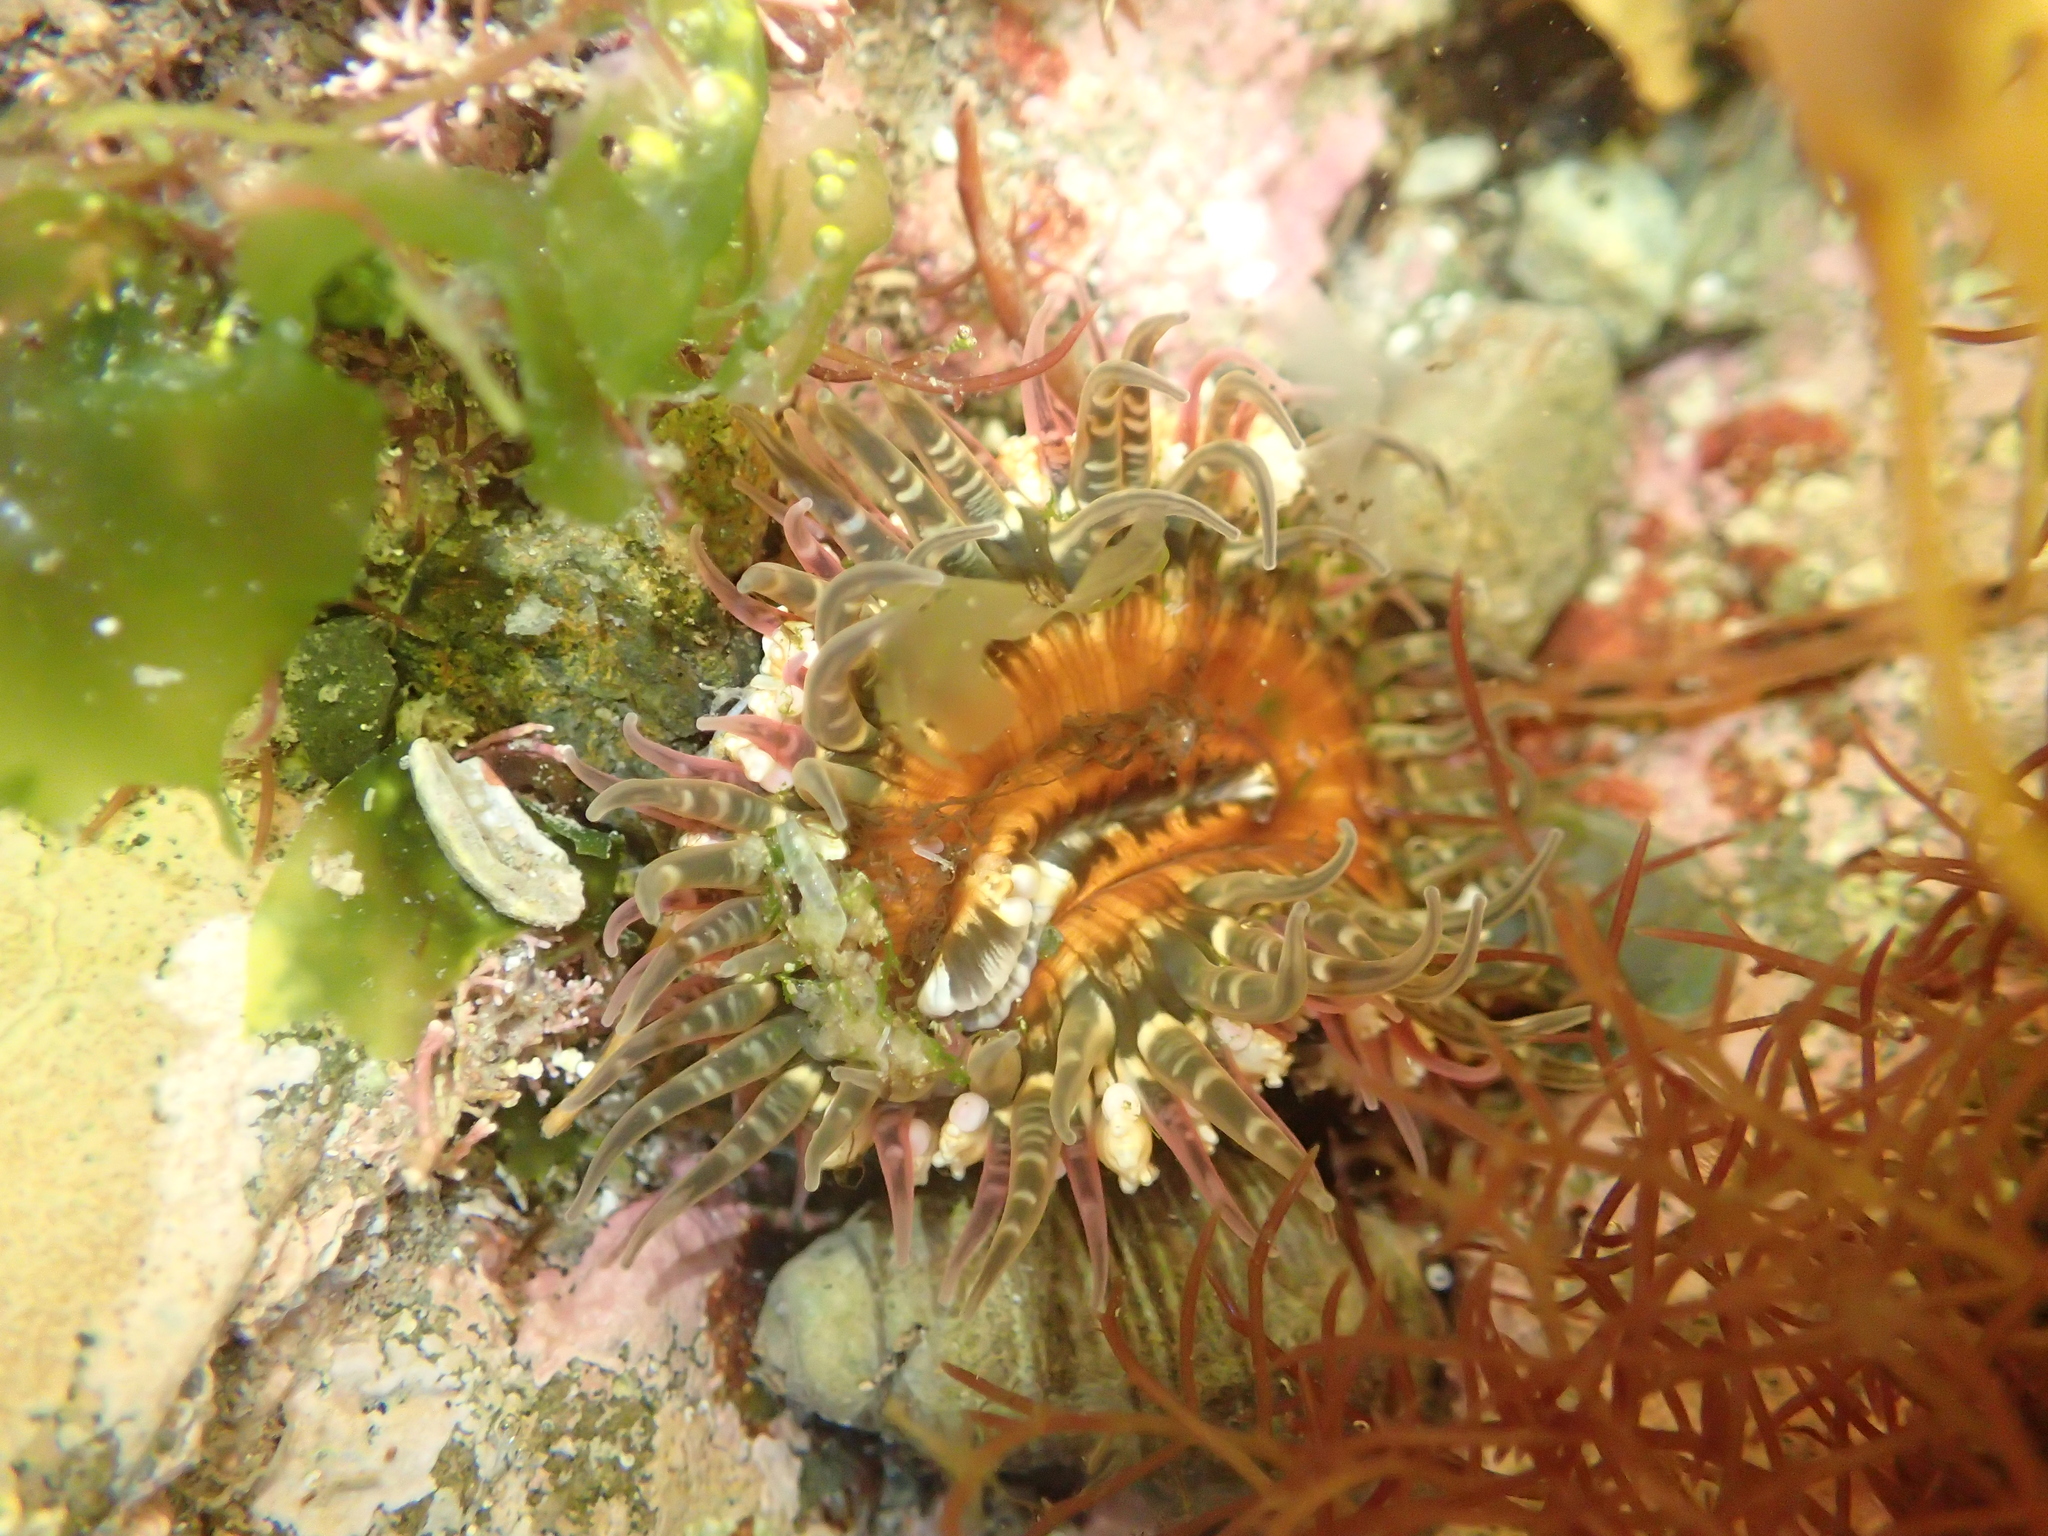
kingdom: Animalia
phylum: Cnidaria
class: Anthozoa
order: Actiniaria
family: Actiniidae
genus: Oulactis
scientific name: Oulactis muscosa
